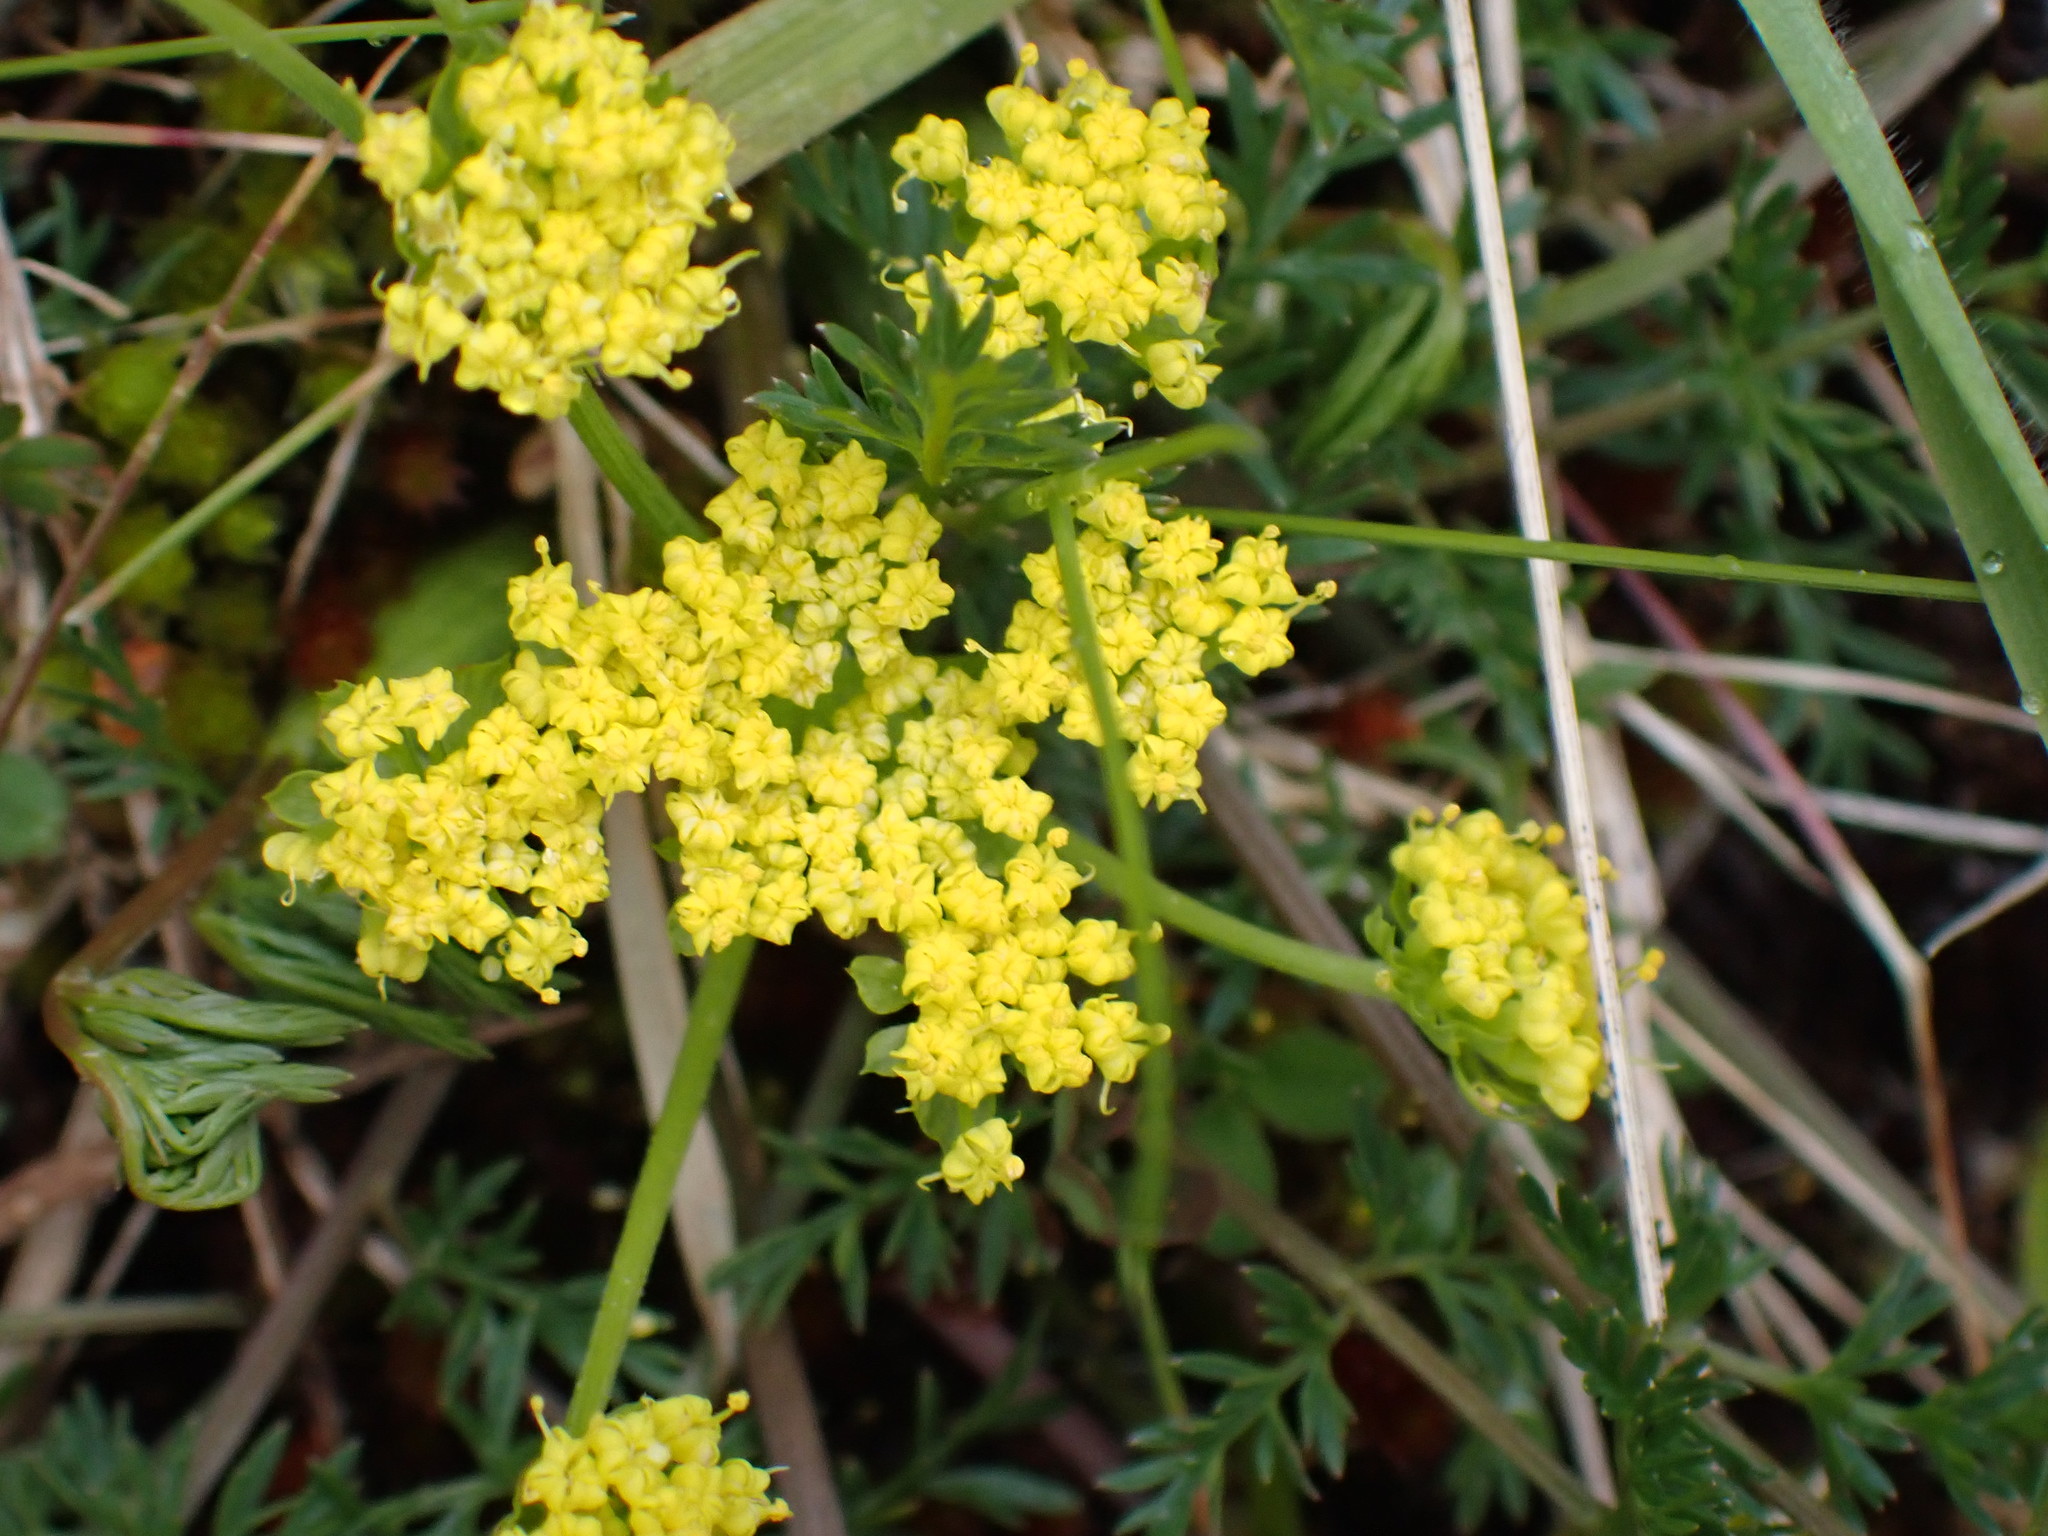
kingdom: Plantae
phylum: Tracheophyta
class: Magnoliopsida
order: Apiales
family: Apiaceae
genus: Lomatium
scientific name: Lomatium utriculatum
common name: Fine-leaf desert-parsley
